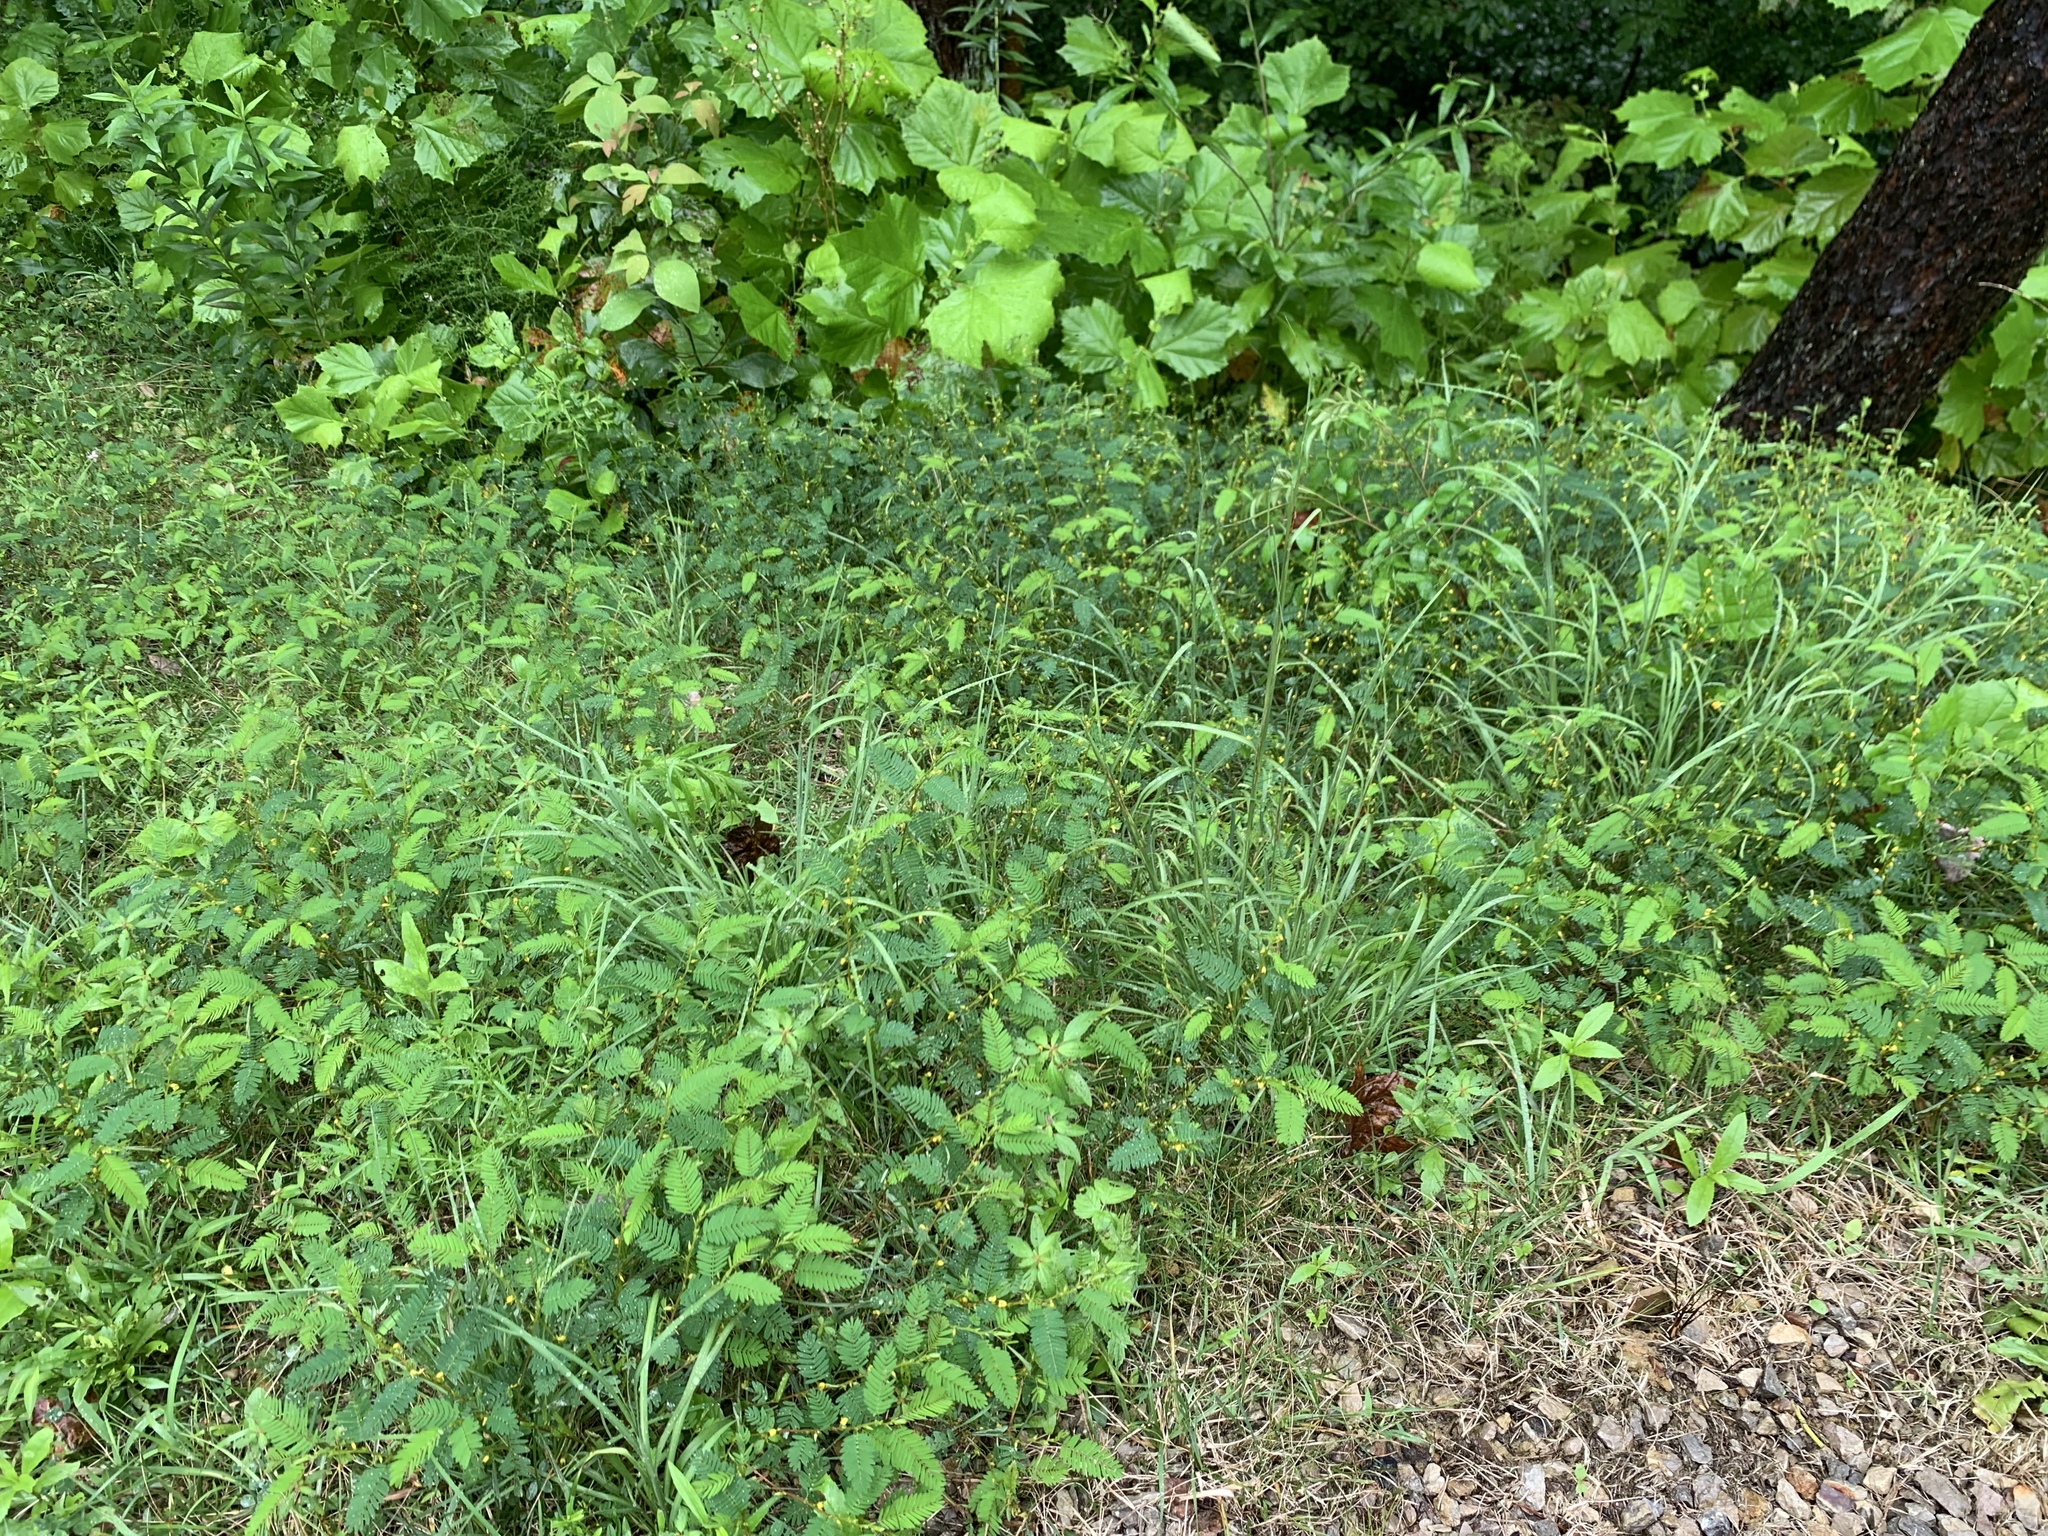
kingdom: Plantae
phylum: Tracheophyta
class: Magnoliopsida
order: Fabales
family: Fabaceae
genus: Chamaecrista
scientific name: Chamaecrista nictitans
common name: Sensitive cassia
